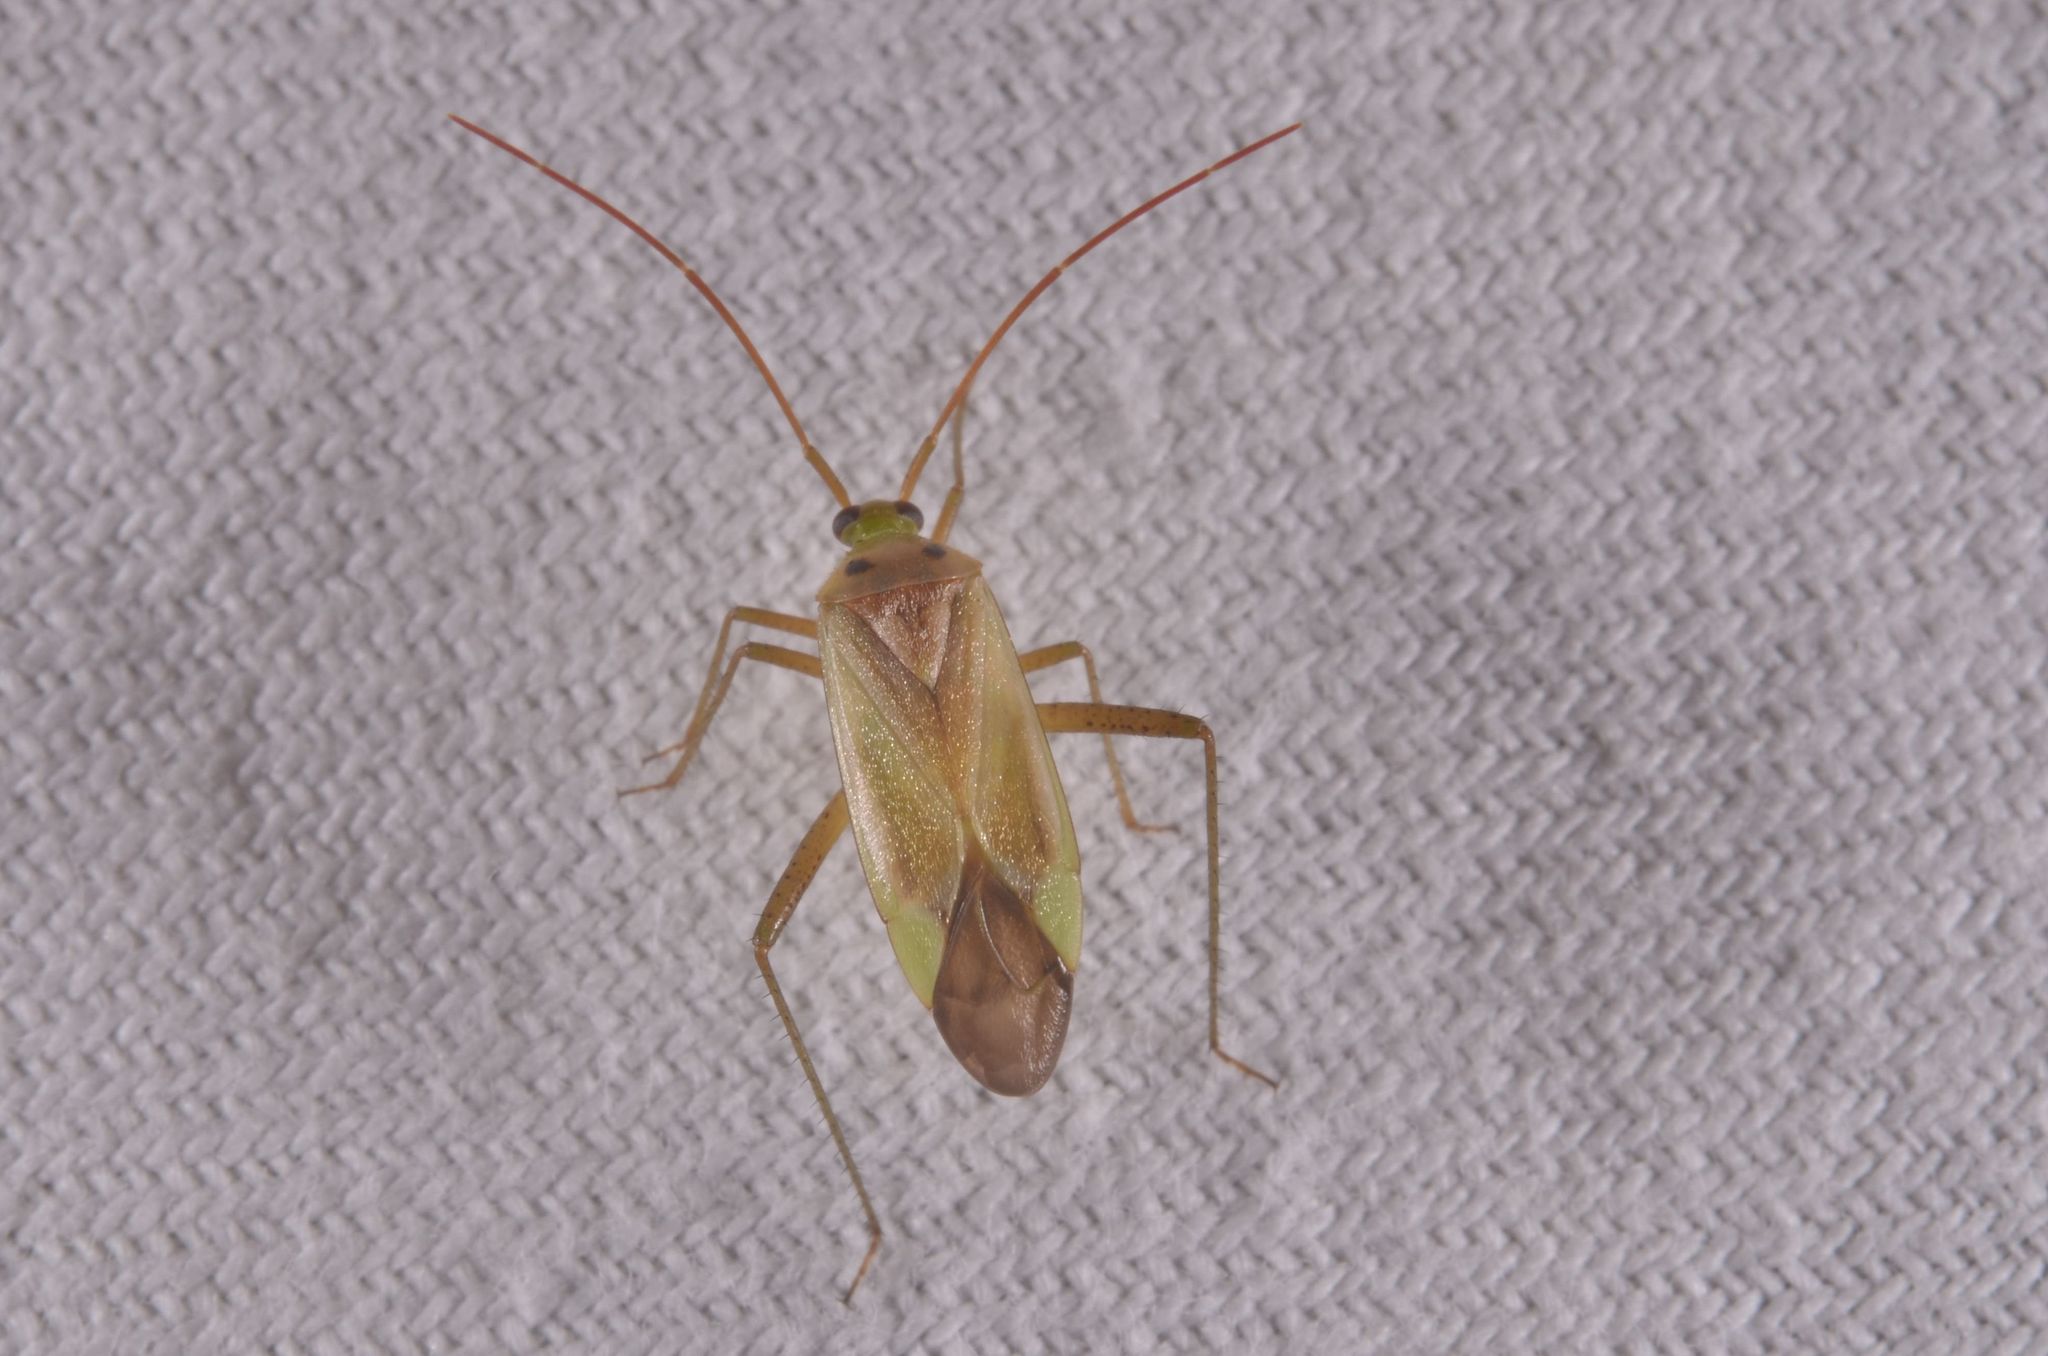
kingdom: Animalia
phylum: Arthropoda
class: Insecta
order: Hemiptera
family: Miridae
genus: Adelphocoris
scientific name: Adelphocoris lineolatus
